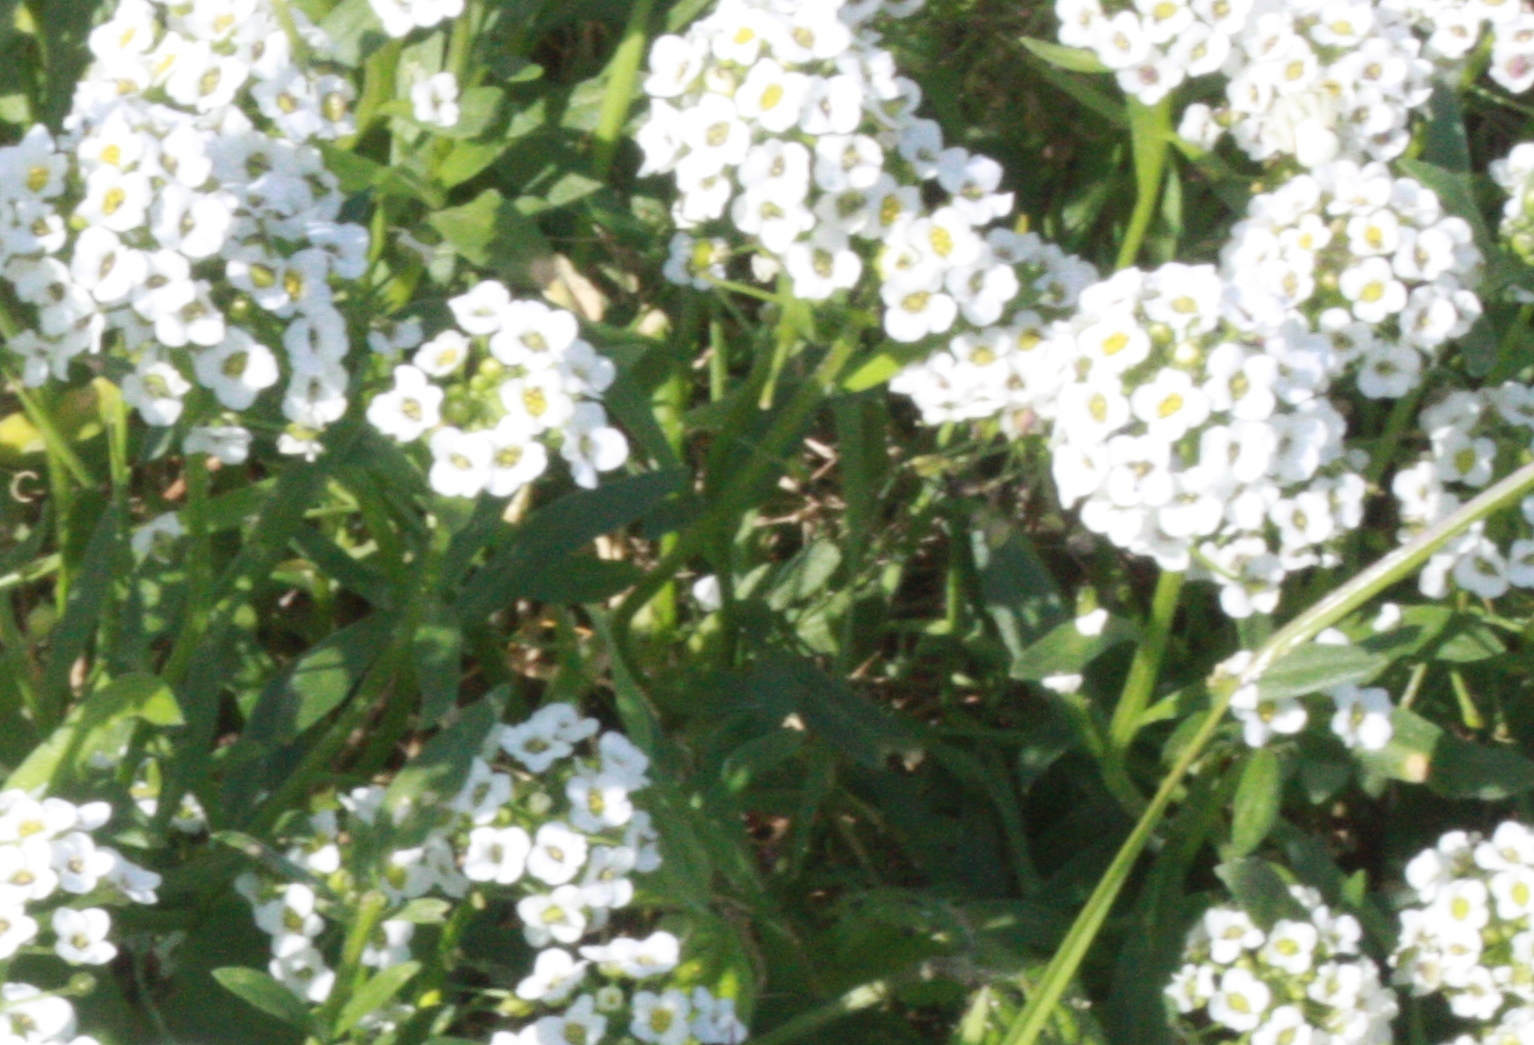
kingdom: Plantae
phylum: Tracheophyta
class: Magnoliopsida
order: Brassicales
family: Brassicaceae
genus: Lobularia
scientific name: Lobularia maritima
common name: Sweet alison
